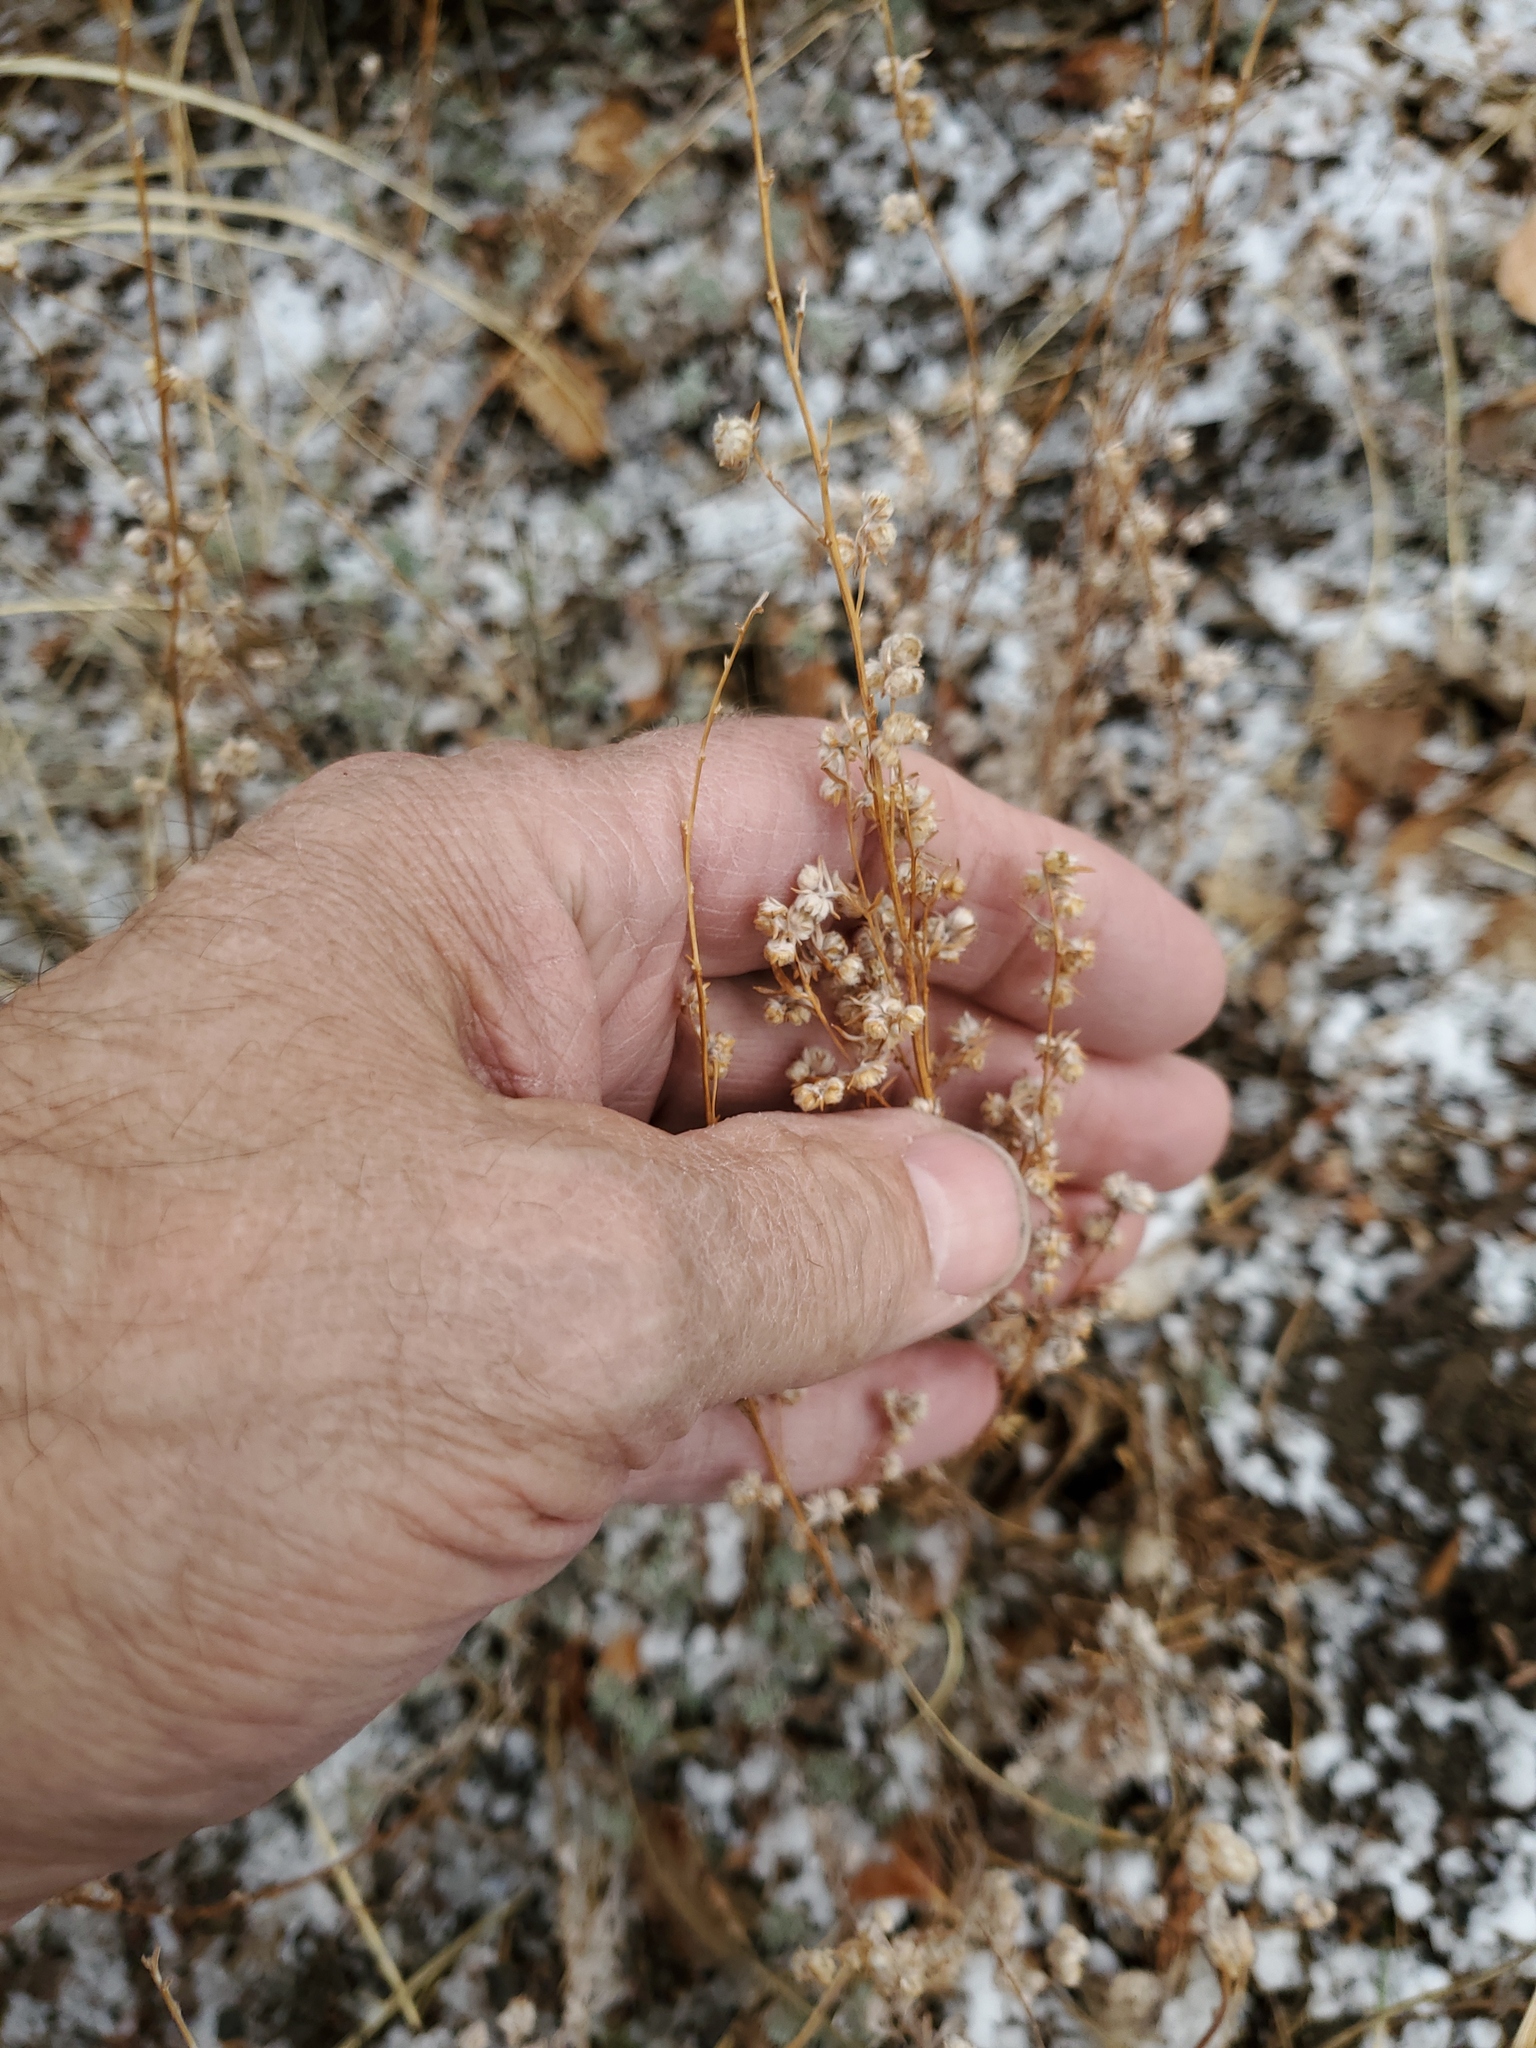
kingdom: Plantae
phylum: Tracheophyta
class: Magnoliopsida
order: Asterales
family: Asteraceae
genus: Artemisia
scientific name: Artemisia frigida
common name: Prairie sagewort
